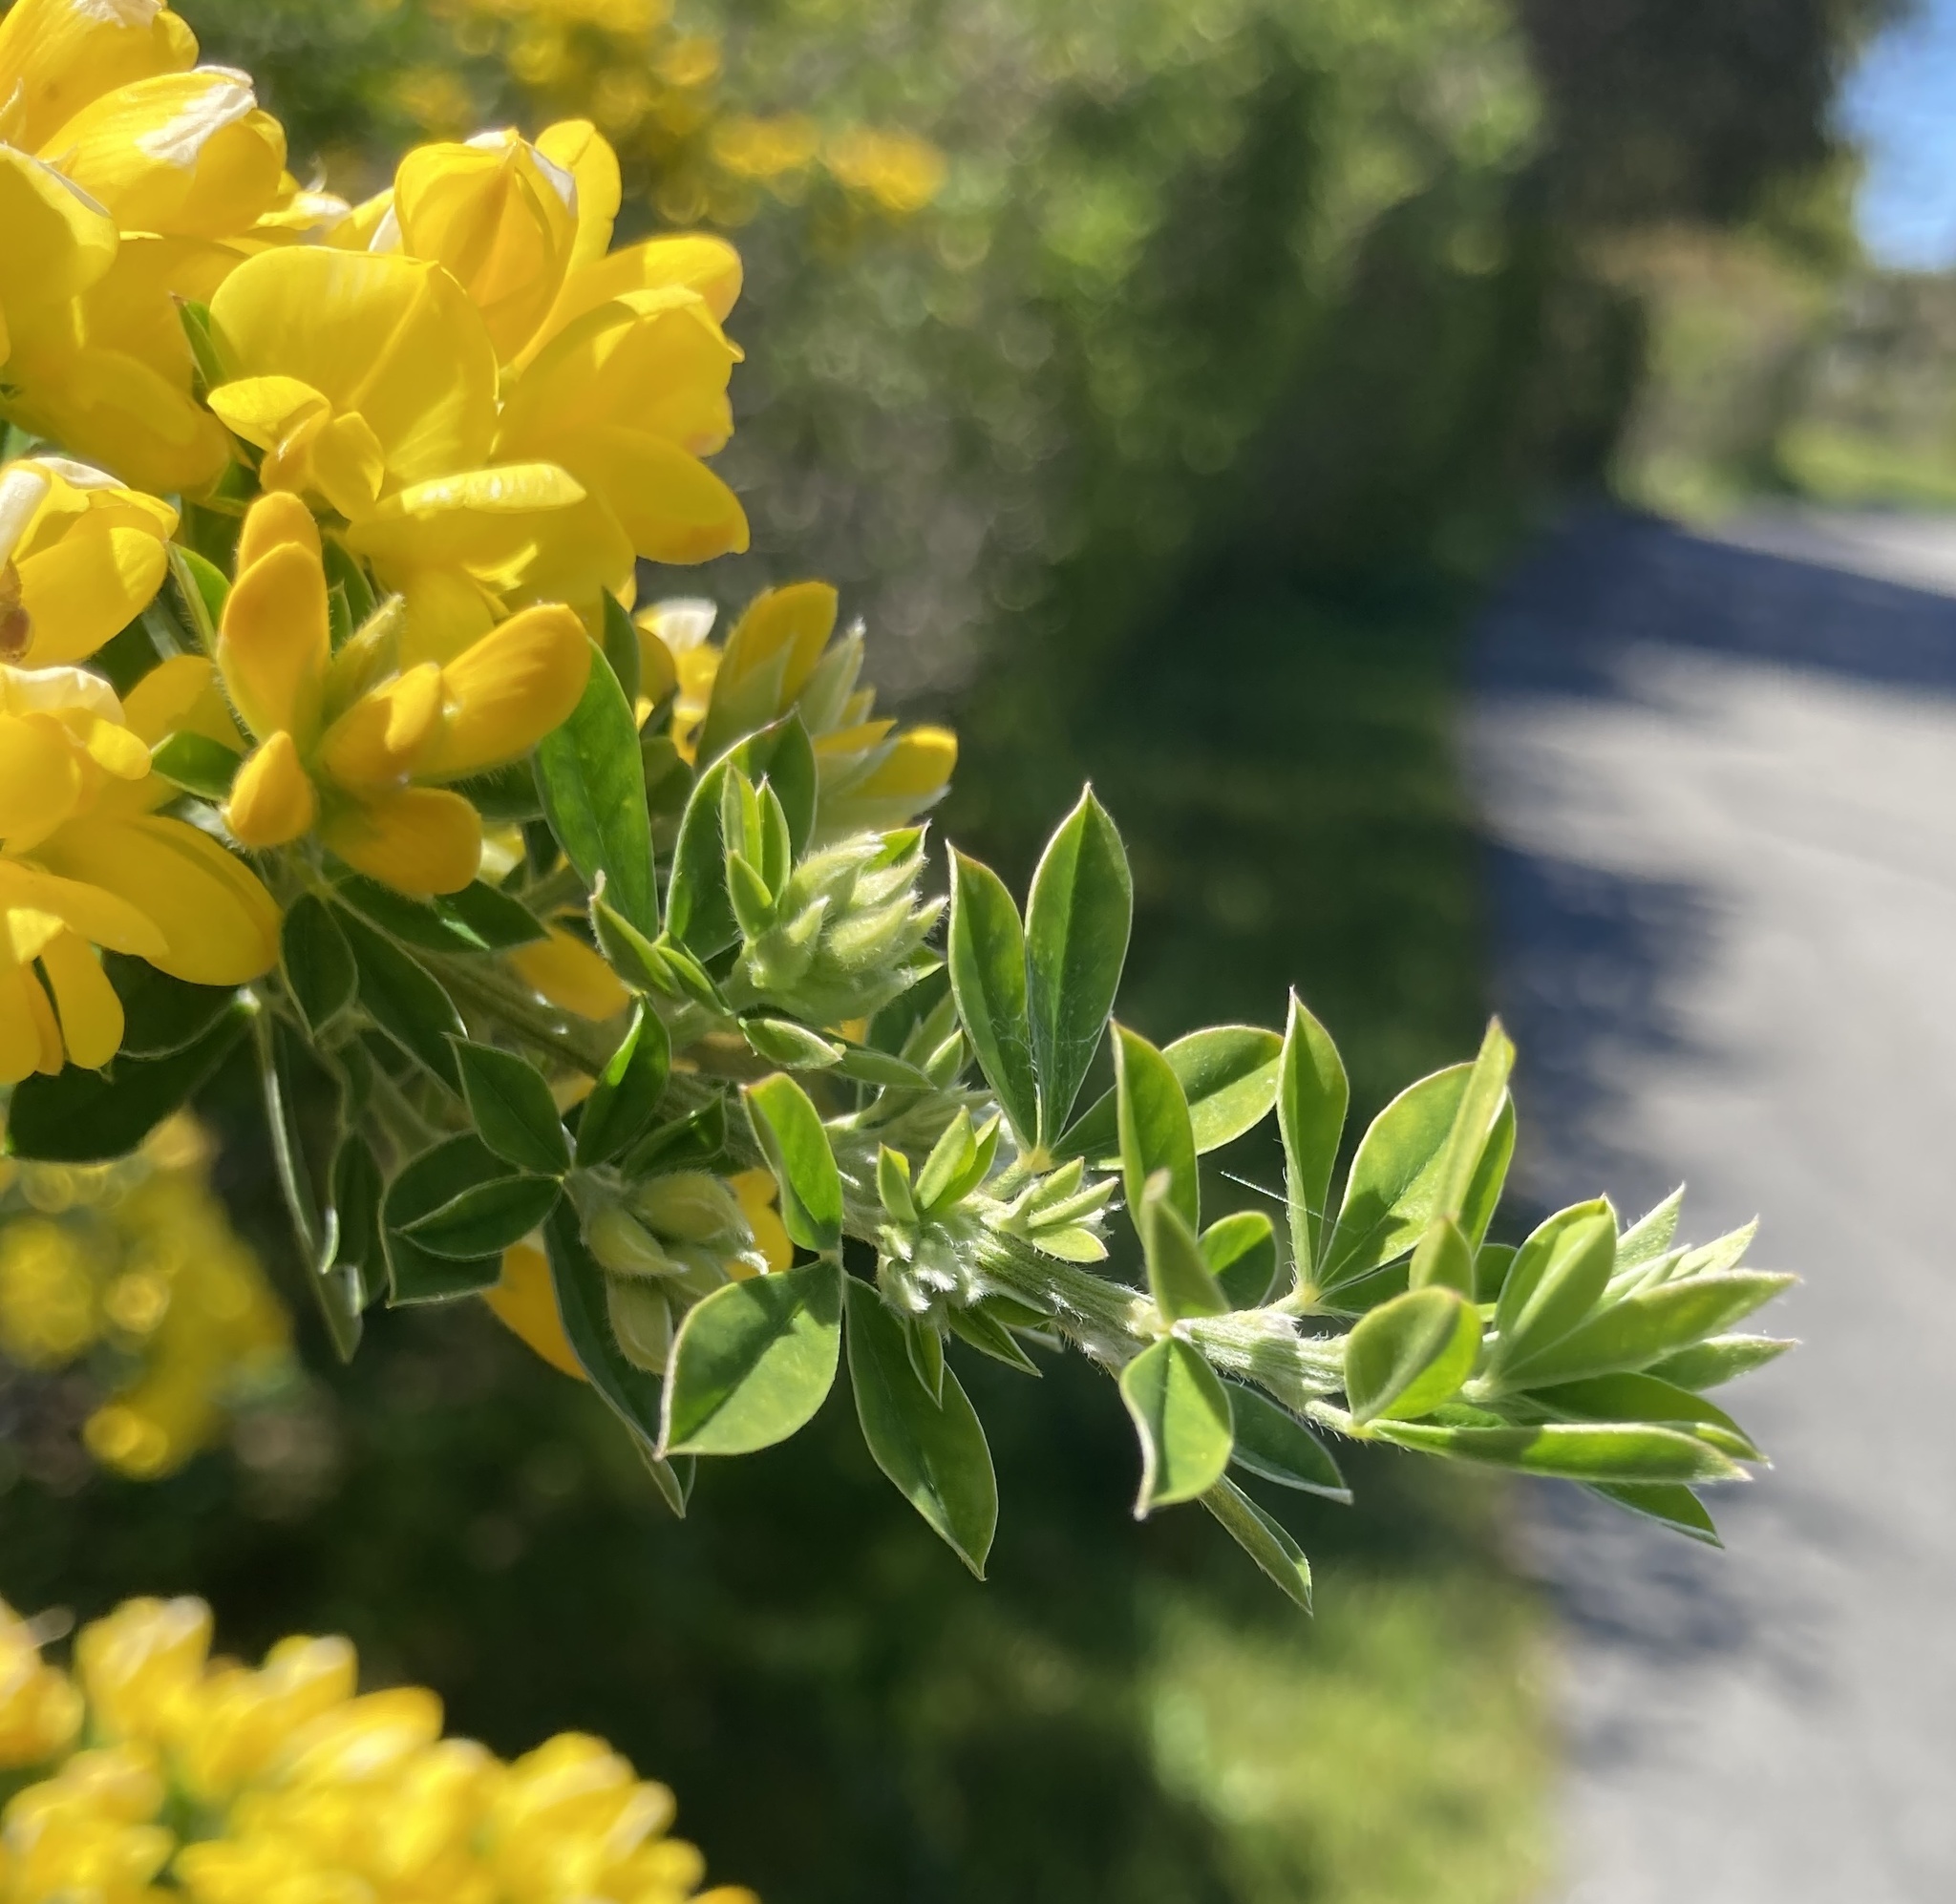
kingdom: Plantae
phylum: Tracheophyta
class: Magnoliopsida
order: Fabales
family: Fabaceae
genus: Genista
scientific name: Genista monspessulana
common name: Montpellier broom
